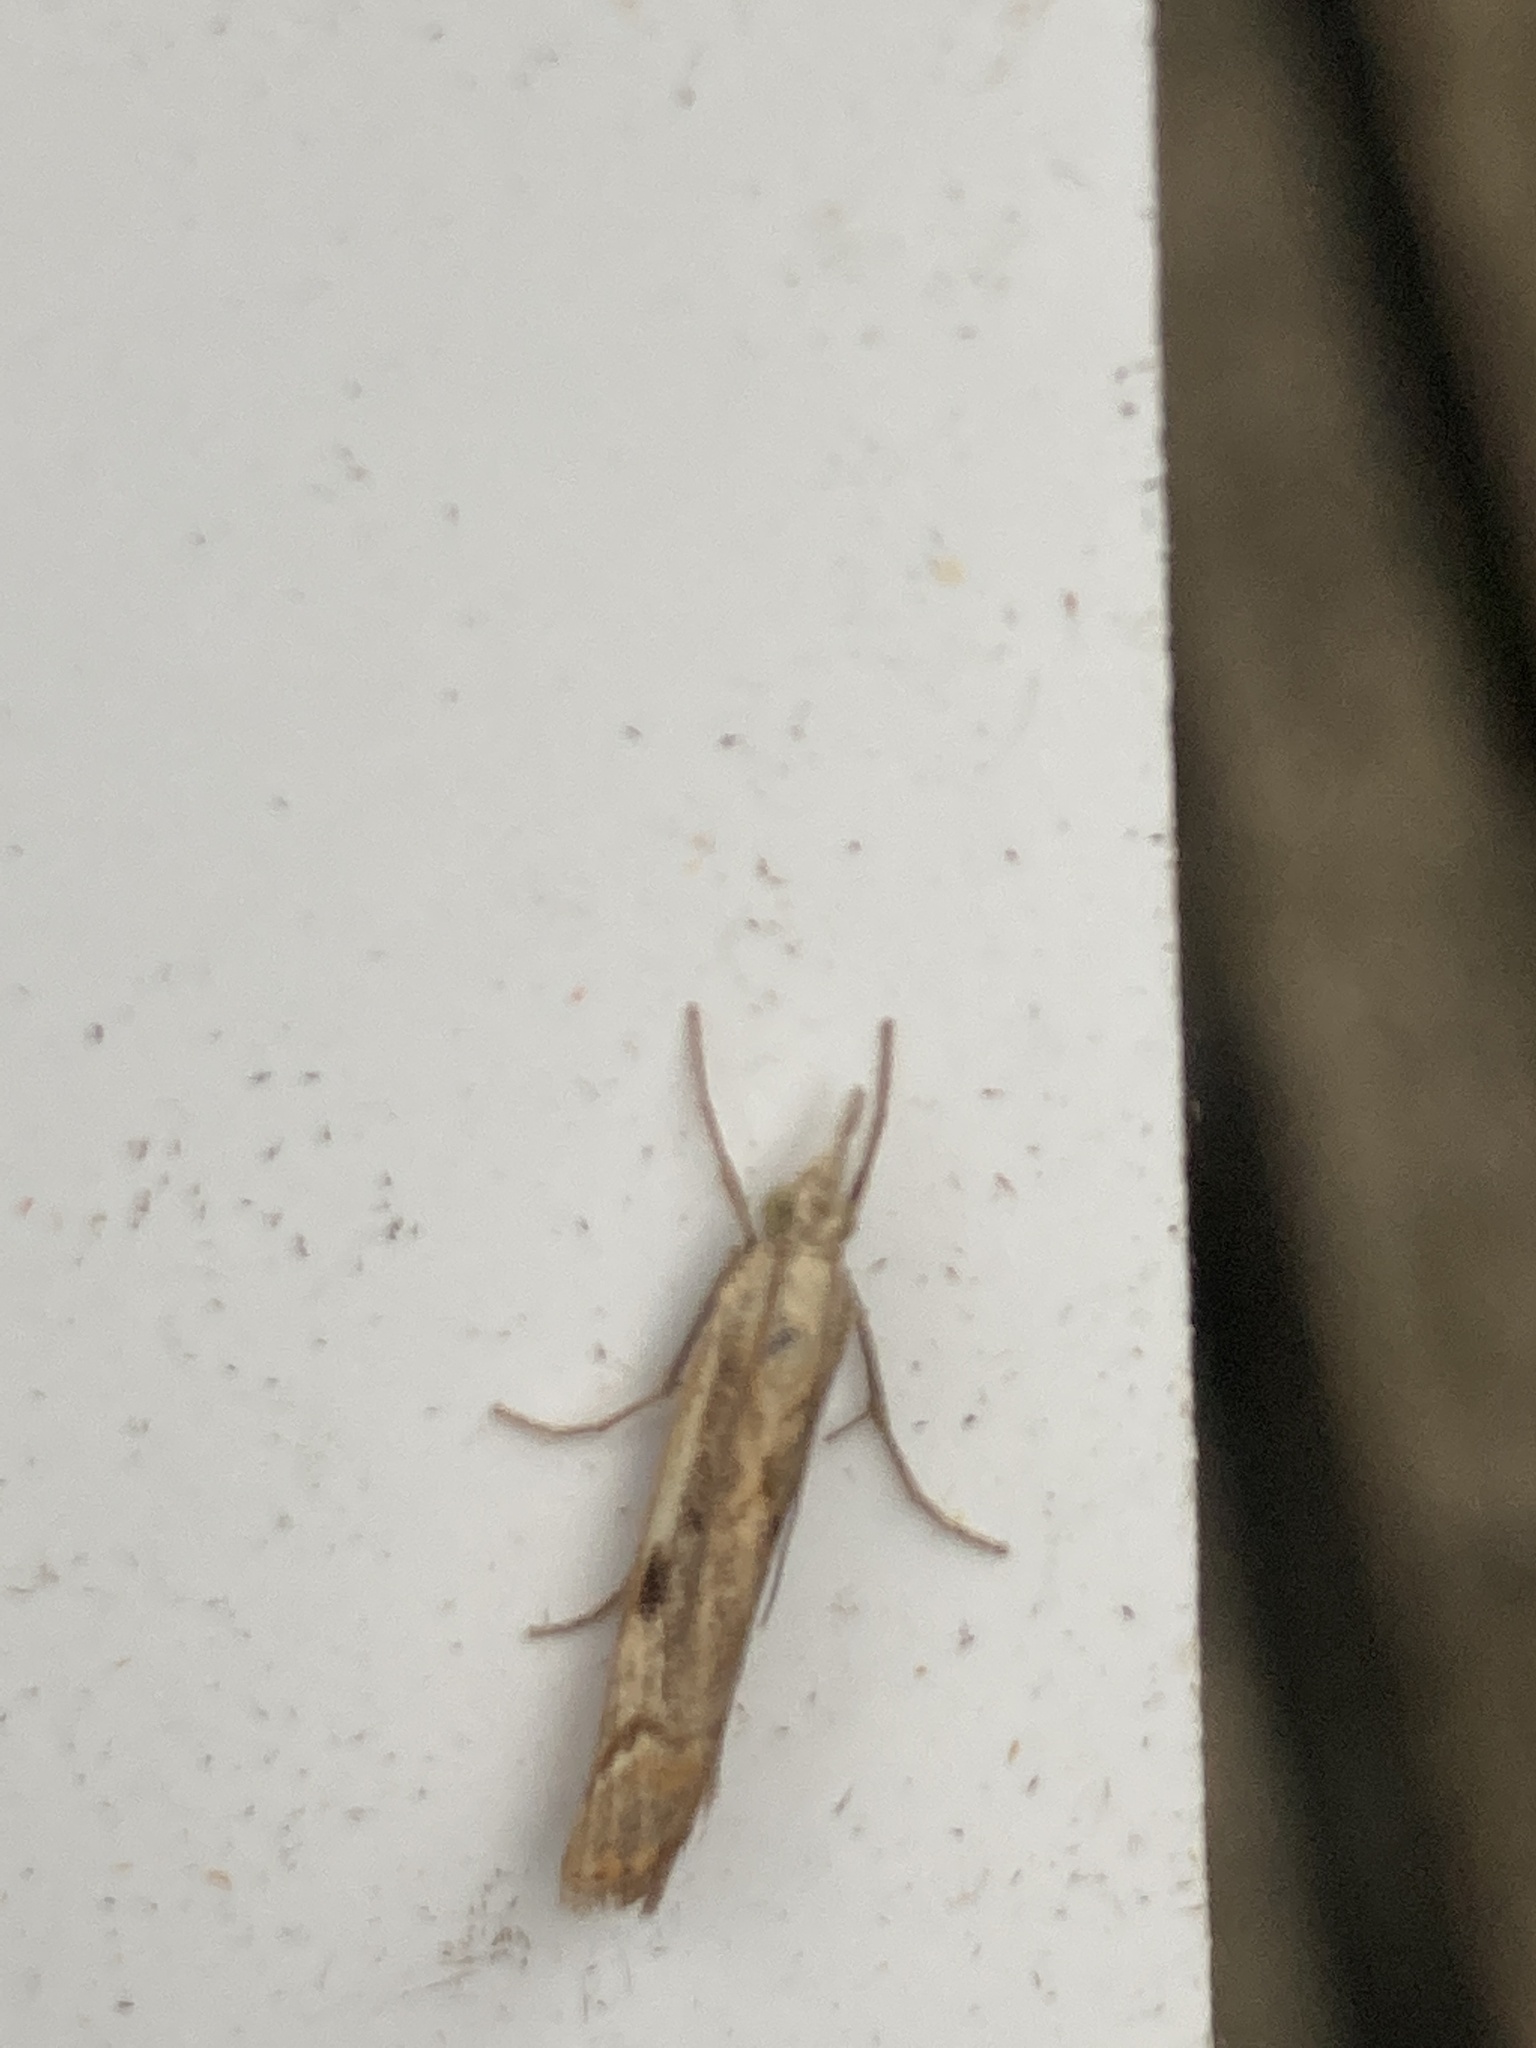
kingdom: Animalia
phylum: Arthropoda
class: Insecta
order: Lepidoptera
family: Crambidae
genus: Agriphila
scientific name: Agriphila geniculea
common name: Elbow-stripe grass-veneer
